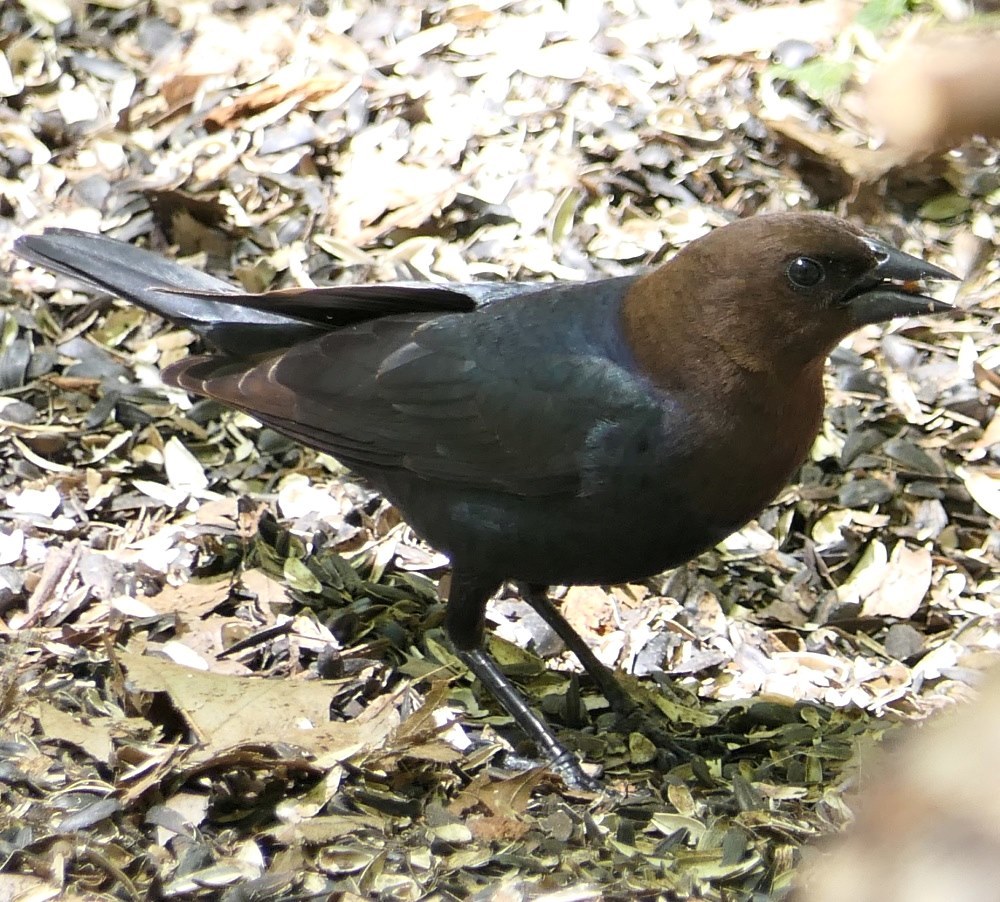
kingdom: Animalia
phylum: Chordata
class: Aves
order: Passeriformes
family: Icteridae
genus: Molothrus
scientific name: Molothrus ater
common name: Brown-headed cowbird
